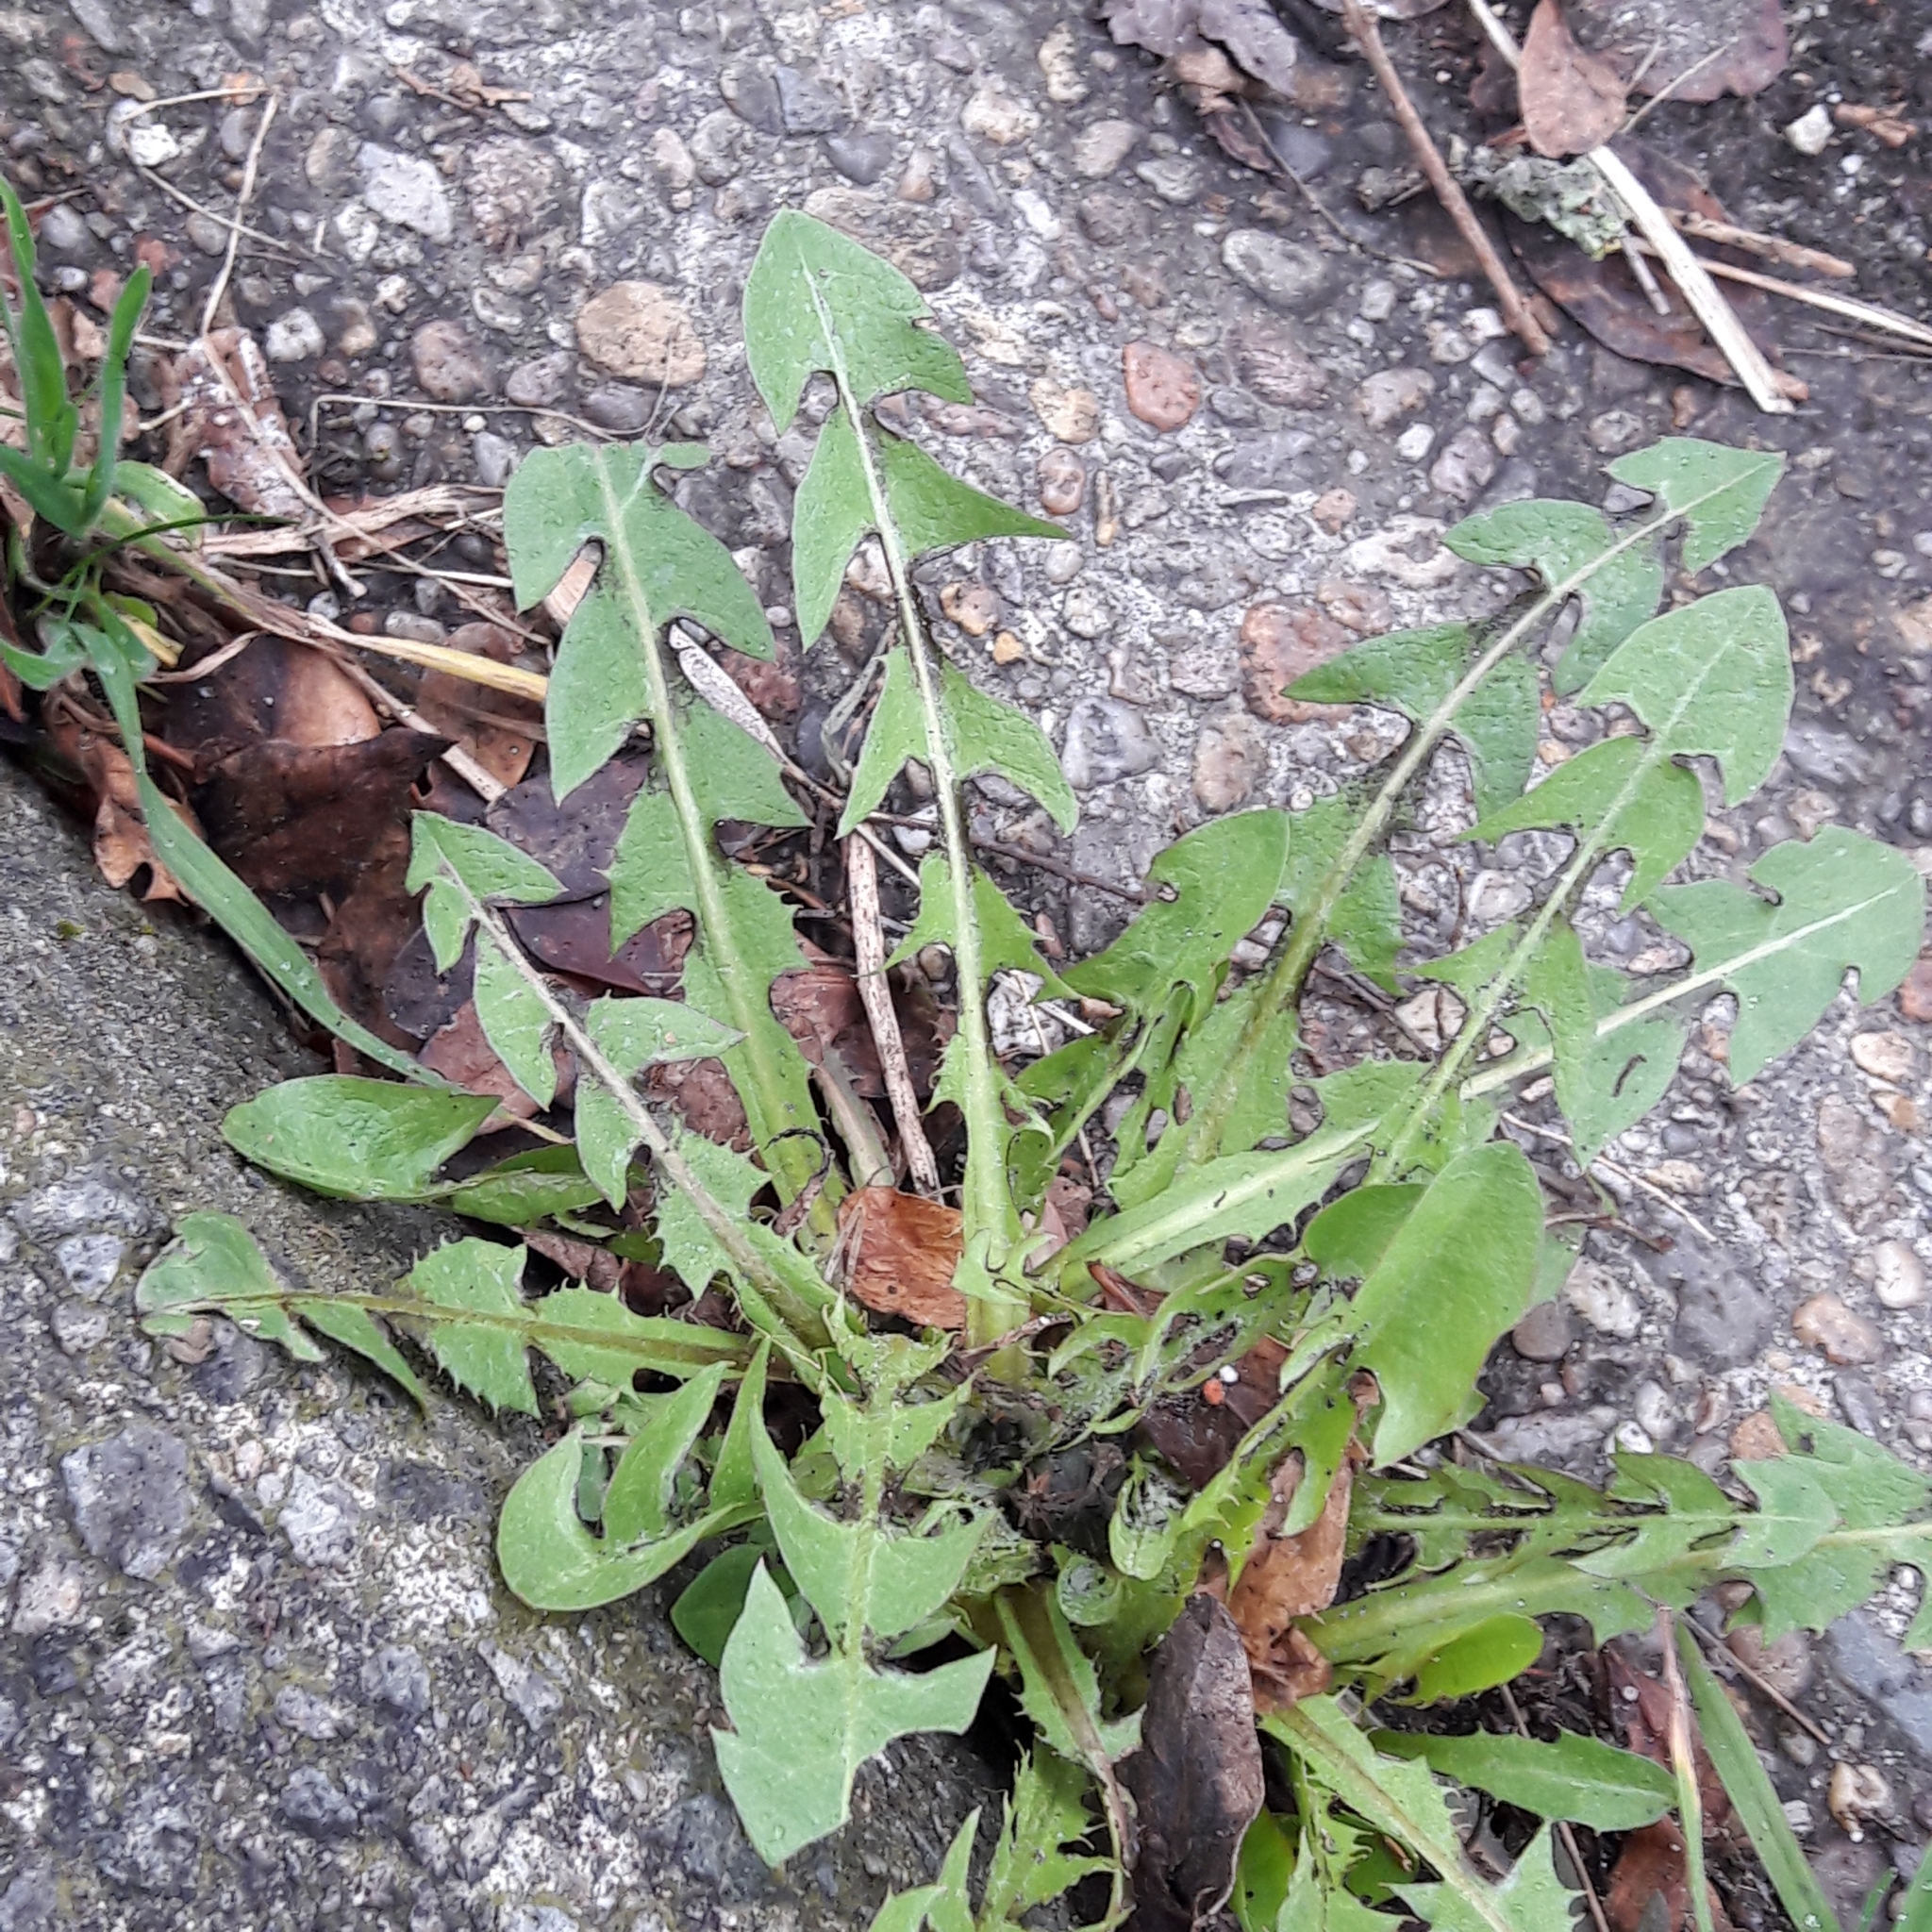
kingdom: Plantae
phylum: Tracheophyta
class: Magnoliopsida
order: Asterales
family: Asteraceae
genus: Taraxacum
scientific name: Taraxacum officinale
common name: Common dandelion
